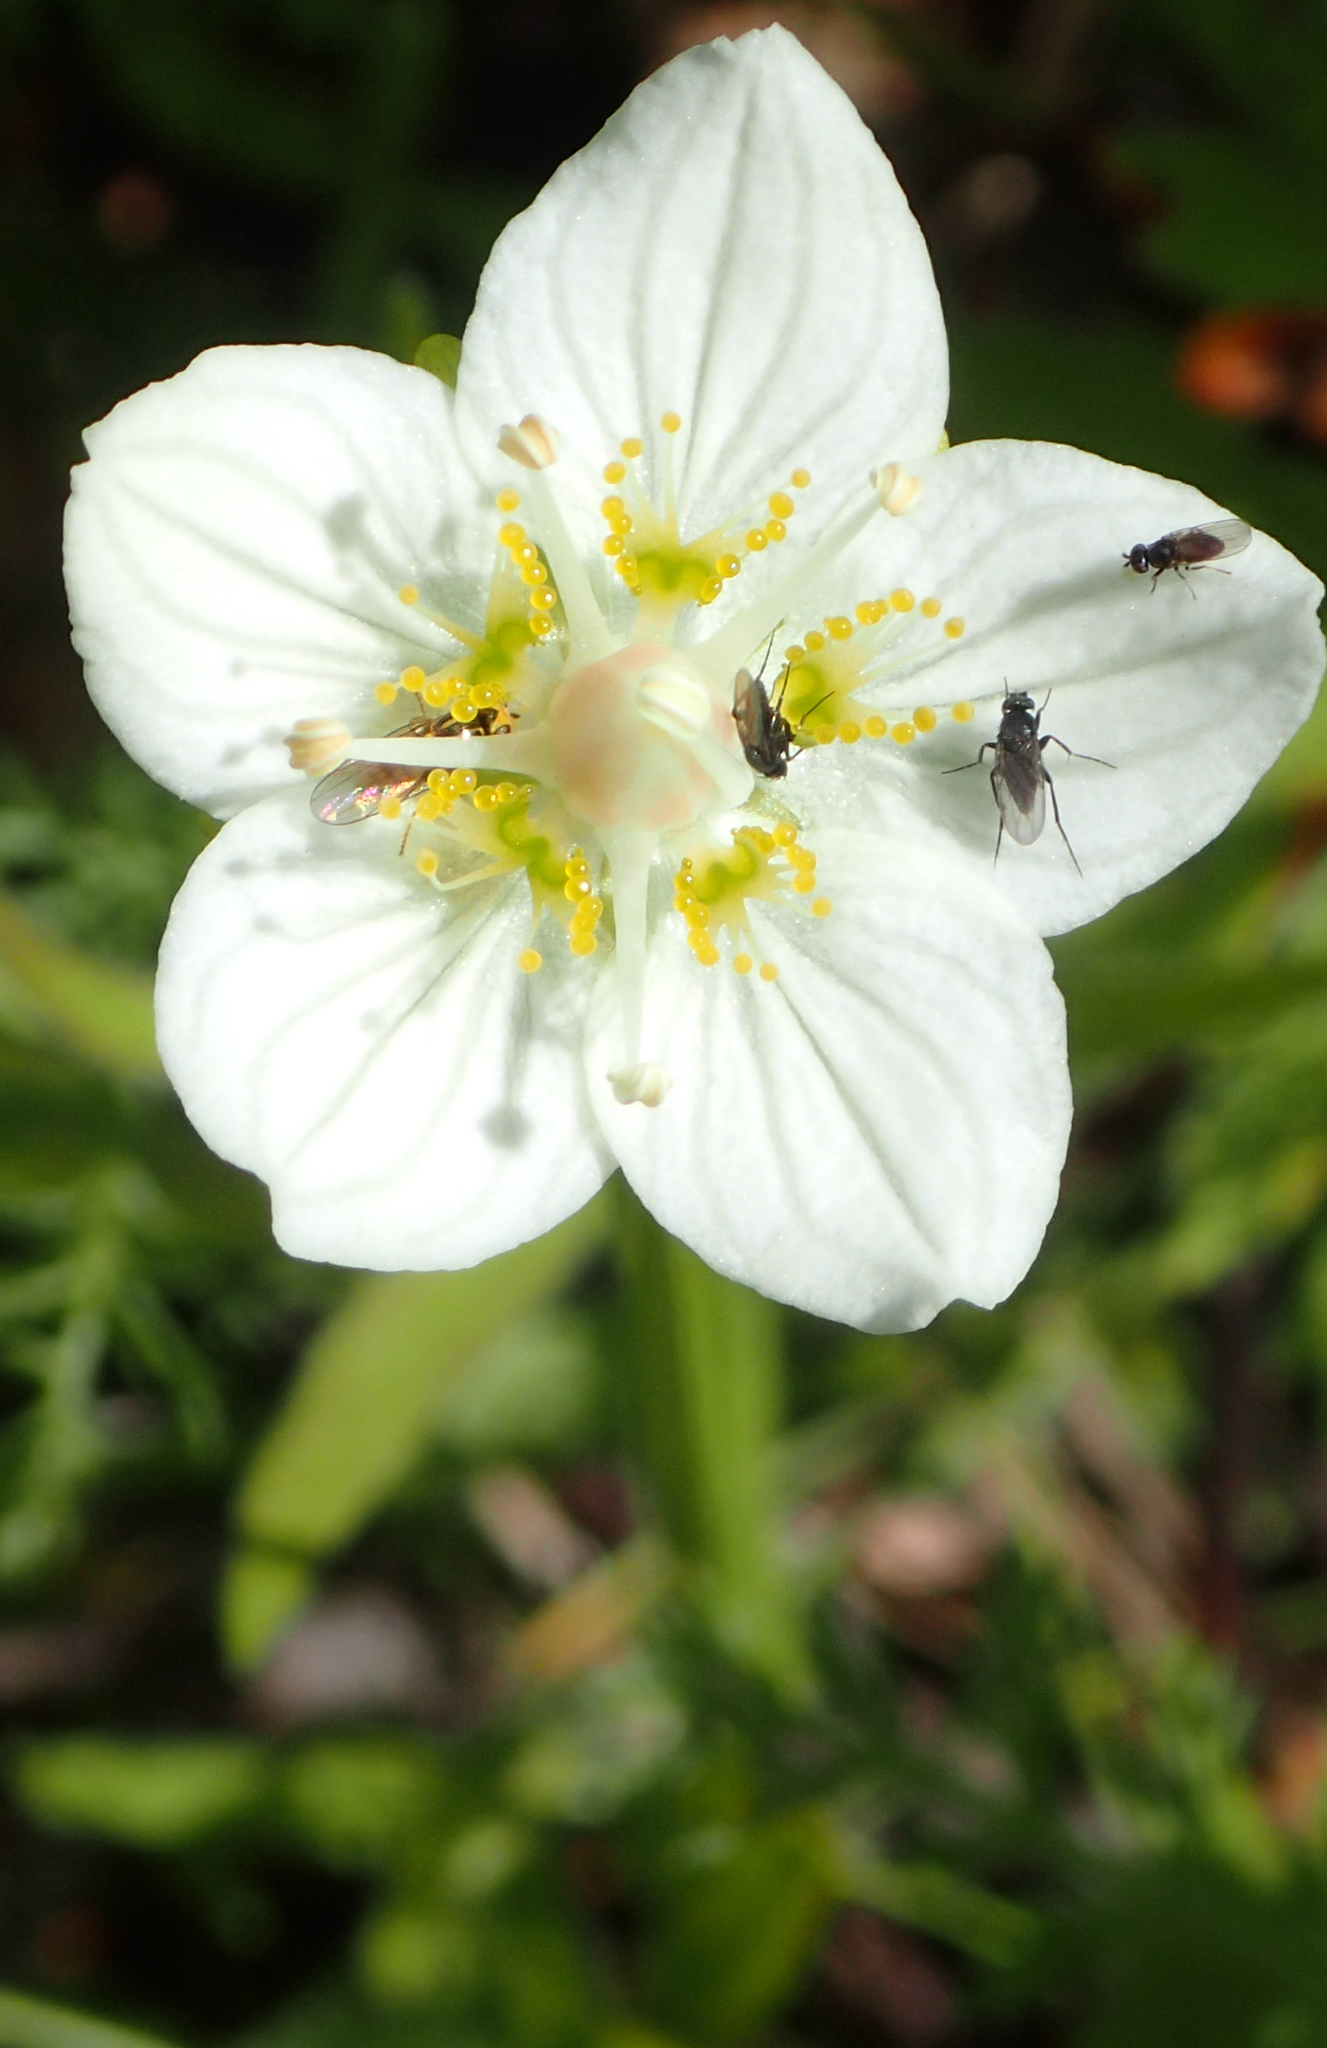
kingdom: Plantae
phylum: Tracheophyta
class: Magnoliopsida
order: Celastrales
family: Parnassiaceae
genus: Parnassia
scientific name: Parnassia palustris
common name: Grass-of-parnassus
